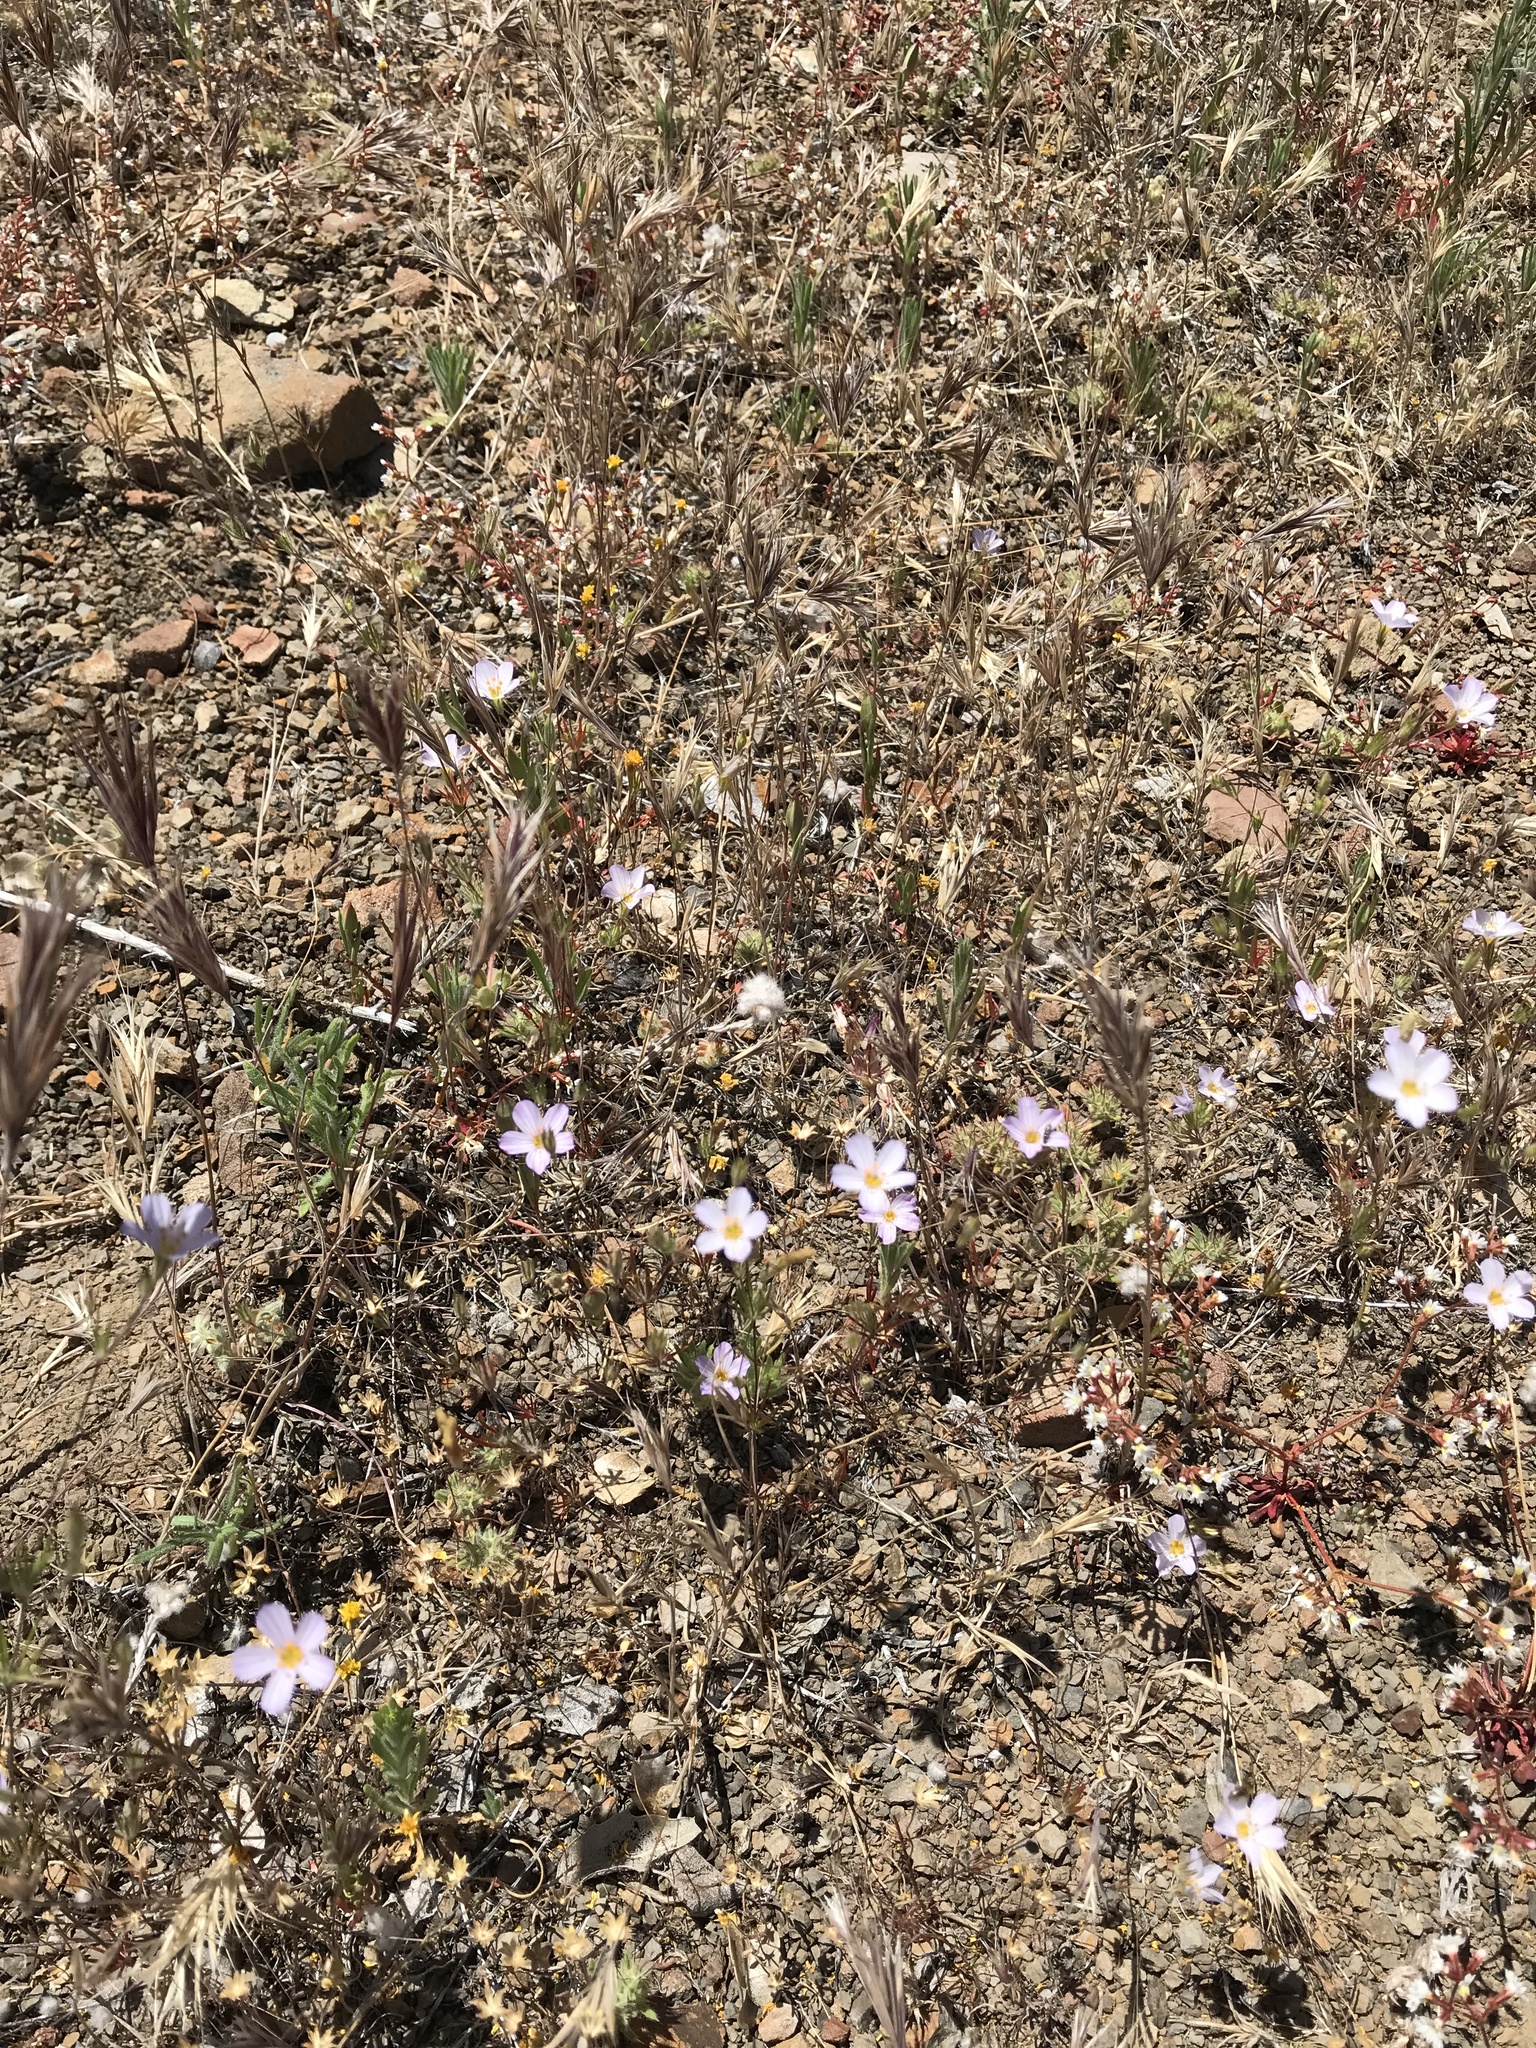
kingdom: Plantae
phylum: Tracheophyta
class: Magnoliopsida
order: Ericales
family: Polemoniaceae
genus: Leptosiphon
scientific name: Leptosiphon liniflorus
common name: Narrowflower flaxflower
